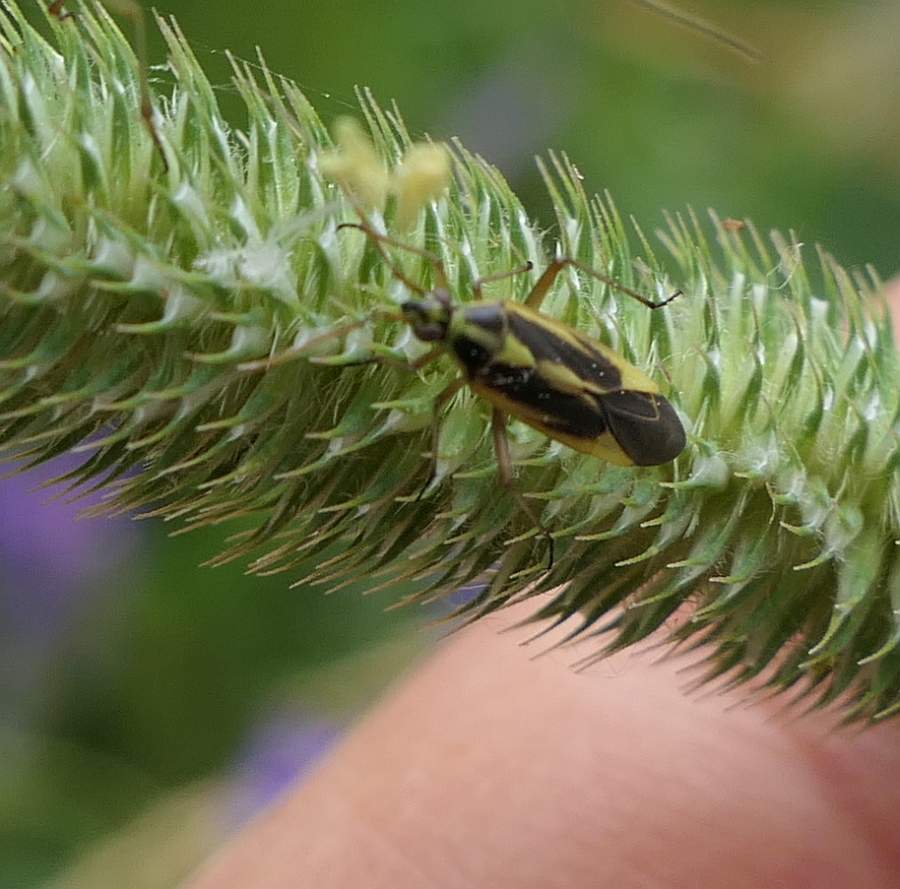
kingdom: Animalia
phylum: Arthropoda
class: Insecta
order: Hemiptera
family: Miridae
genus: Stenotus
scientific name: Stenotus binotatus
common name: Plant bug
